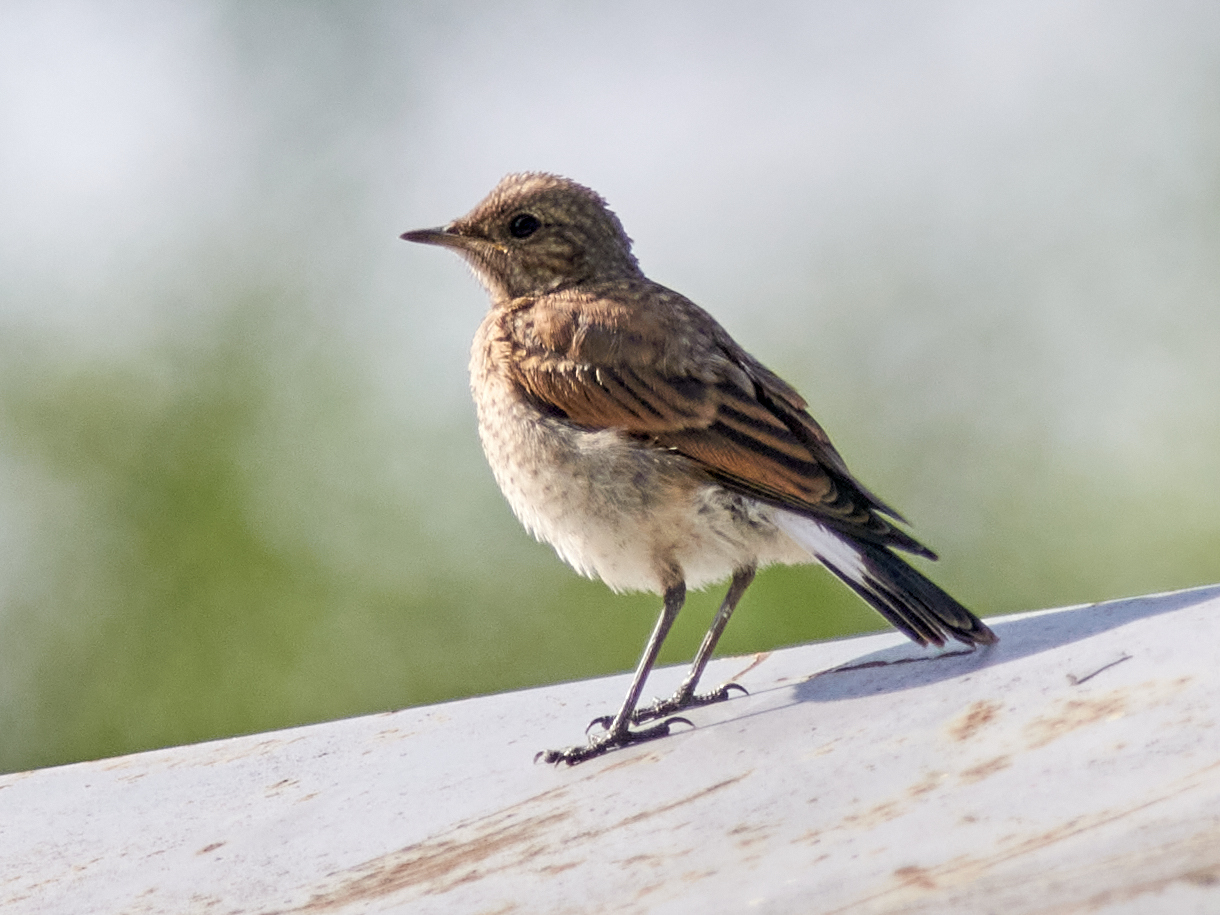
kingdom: Animalia
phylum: Chordata
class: Aves
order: Passeriformes
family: Muscicapidae
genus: Oenanthe
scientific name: Oenanthe oenanthe
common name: Northern wheatear
